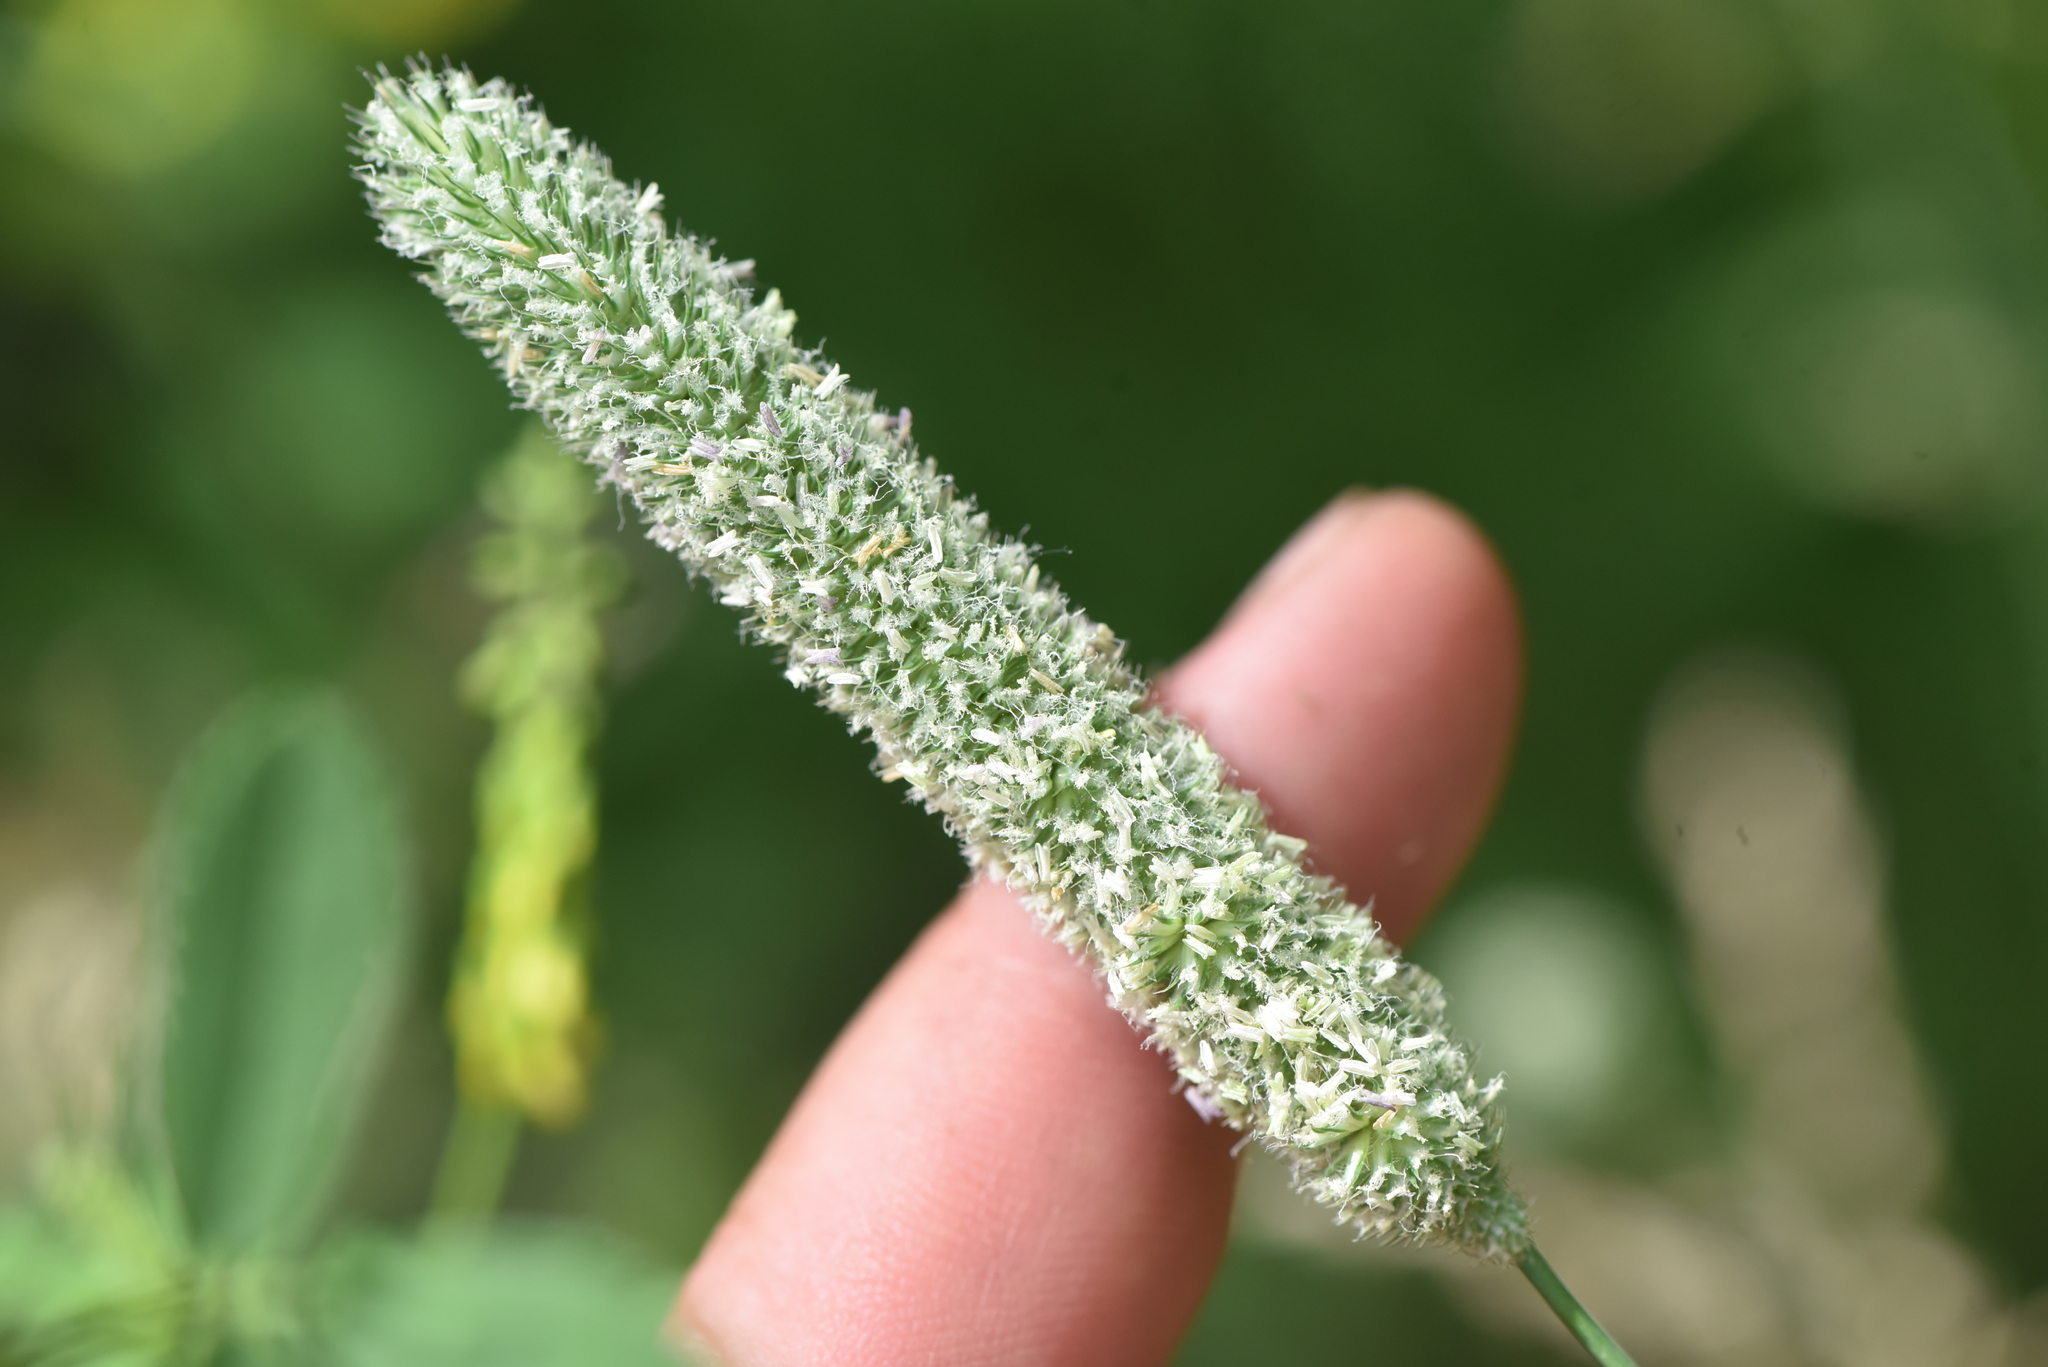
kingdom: Plantae
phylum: Tracheophyta
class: Liliopsida
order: Poales
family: Poaceae
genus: Phleum
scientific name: Phleum pratense
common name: Timothy grass
